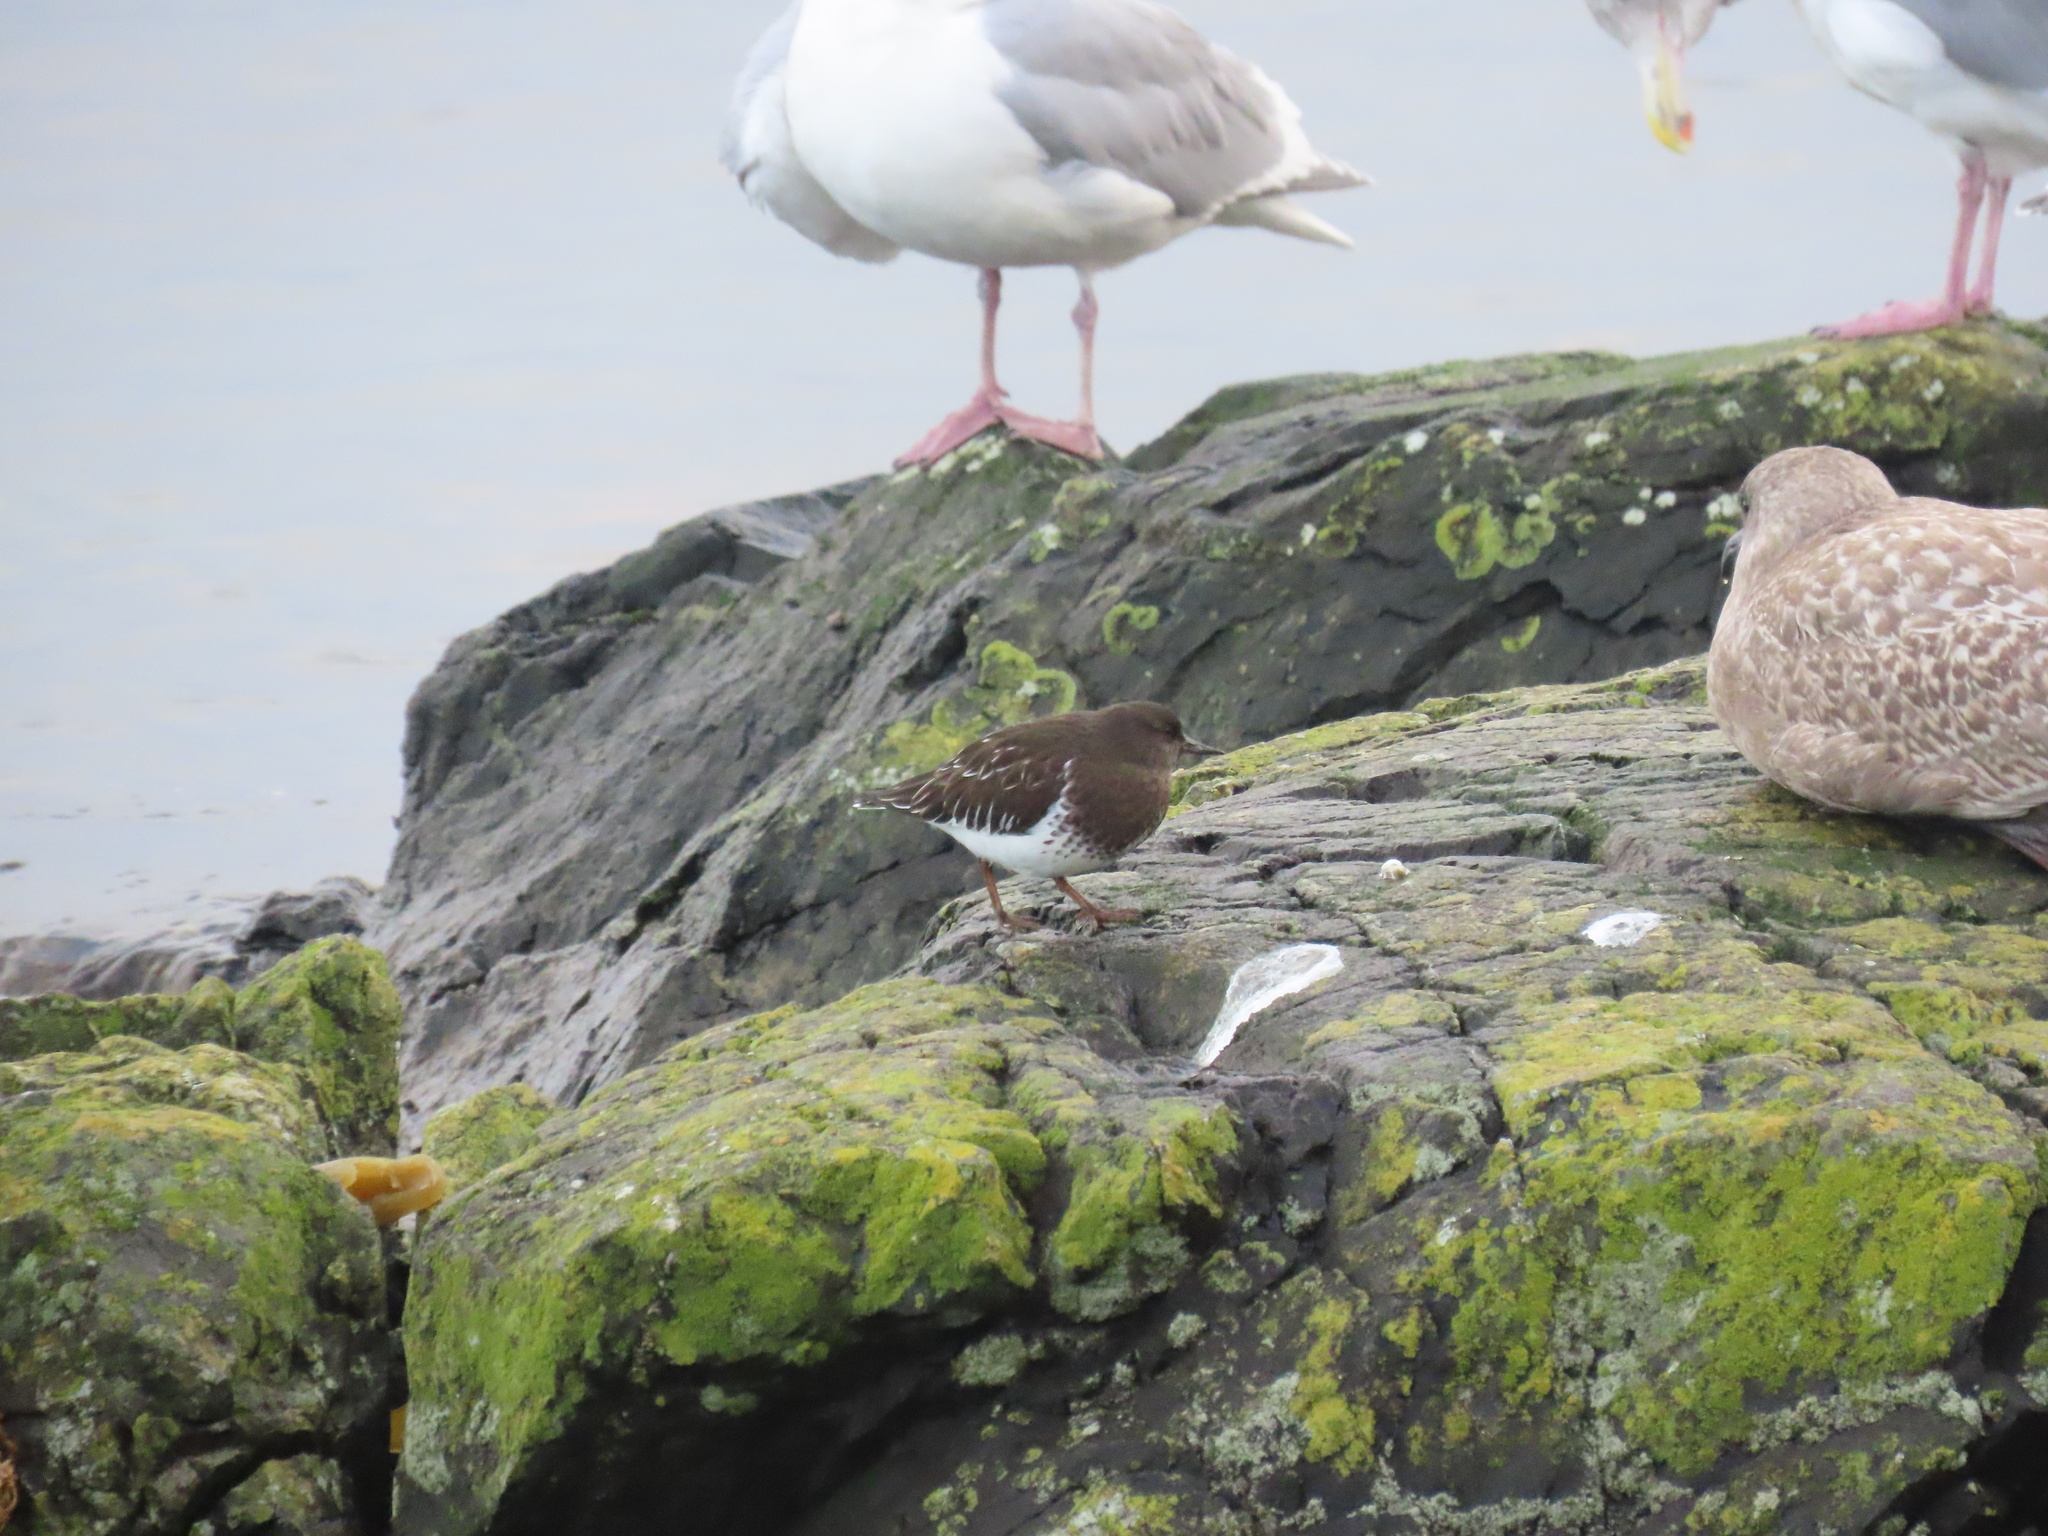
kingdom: Animalia
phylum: Chordata
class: Aves
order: Charadriiformes
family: Scolopacidae
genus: Arenaria
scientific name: Arenaria melanocephala
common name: Black turnstone
